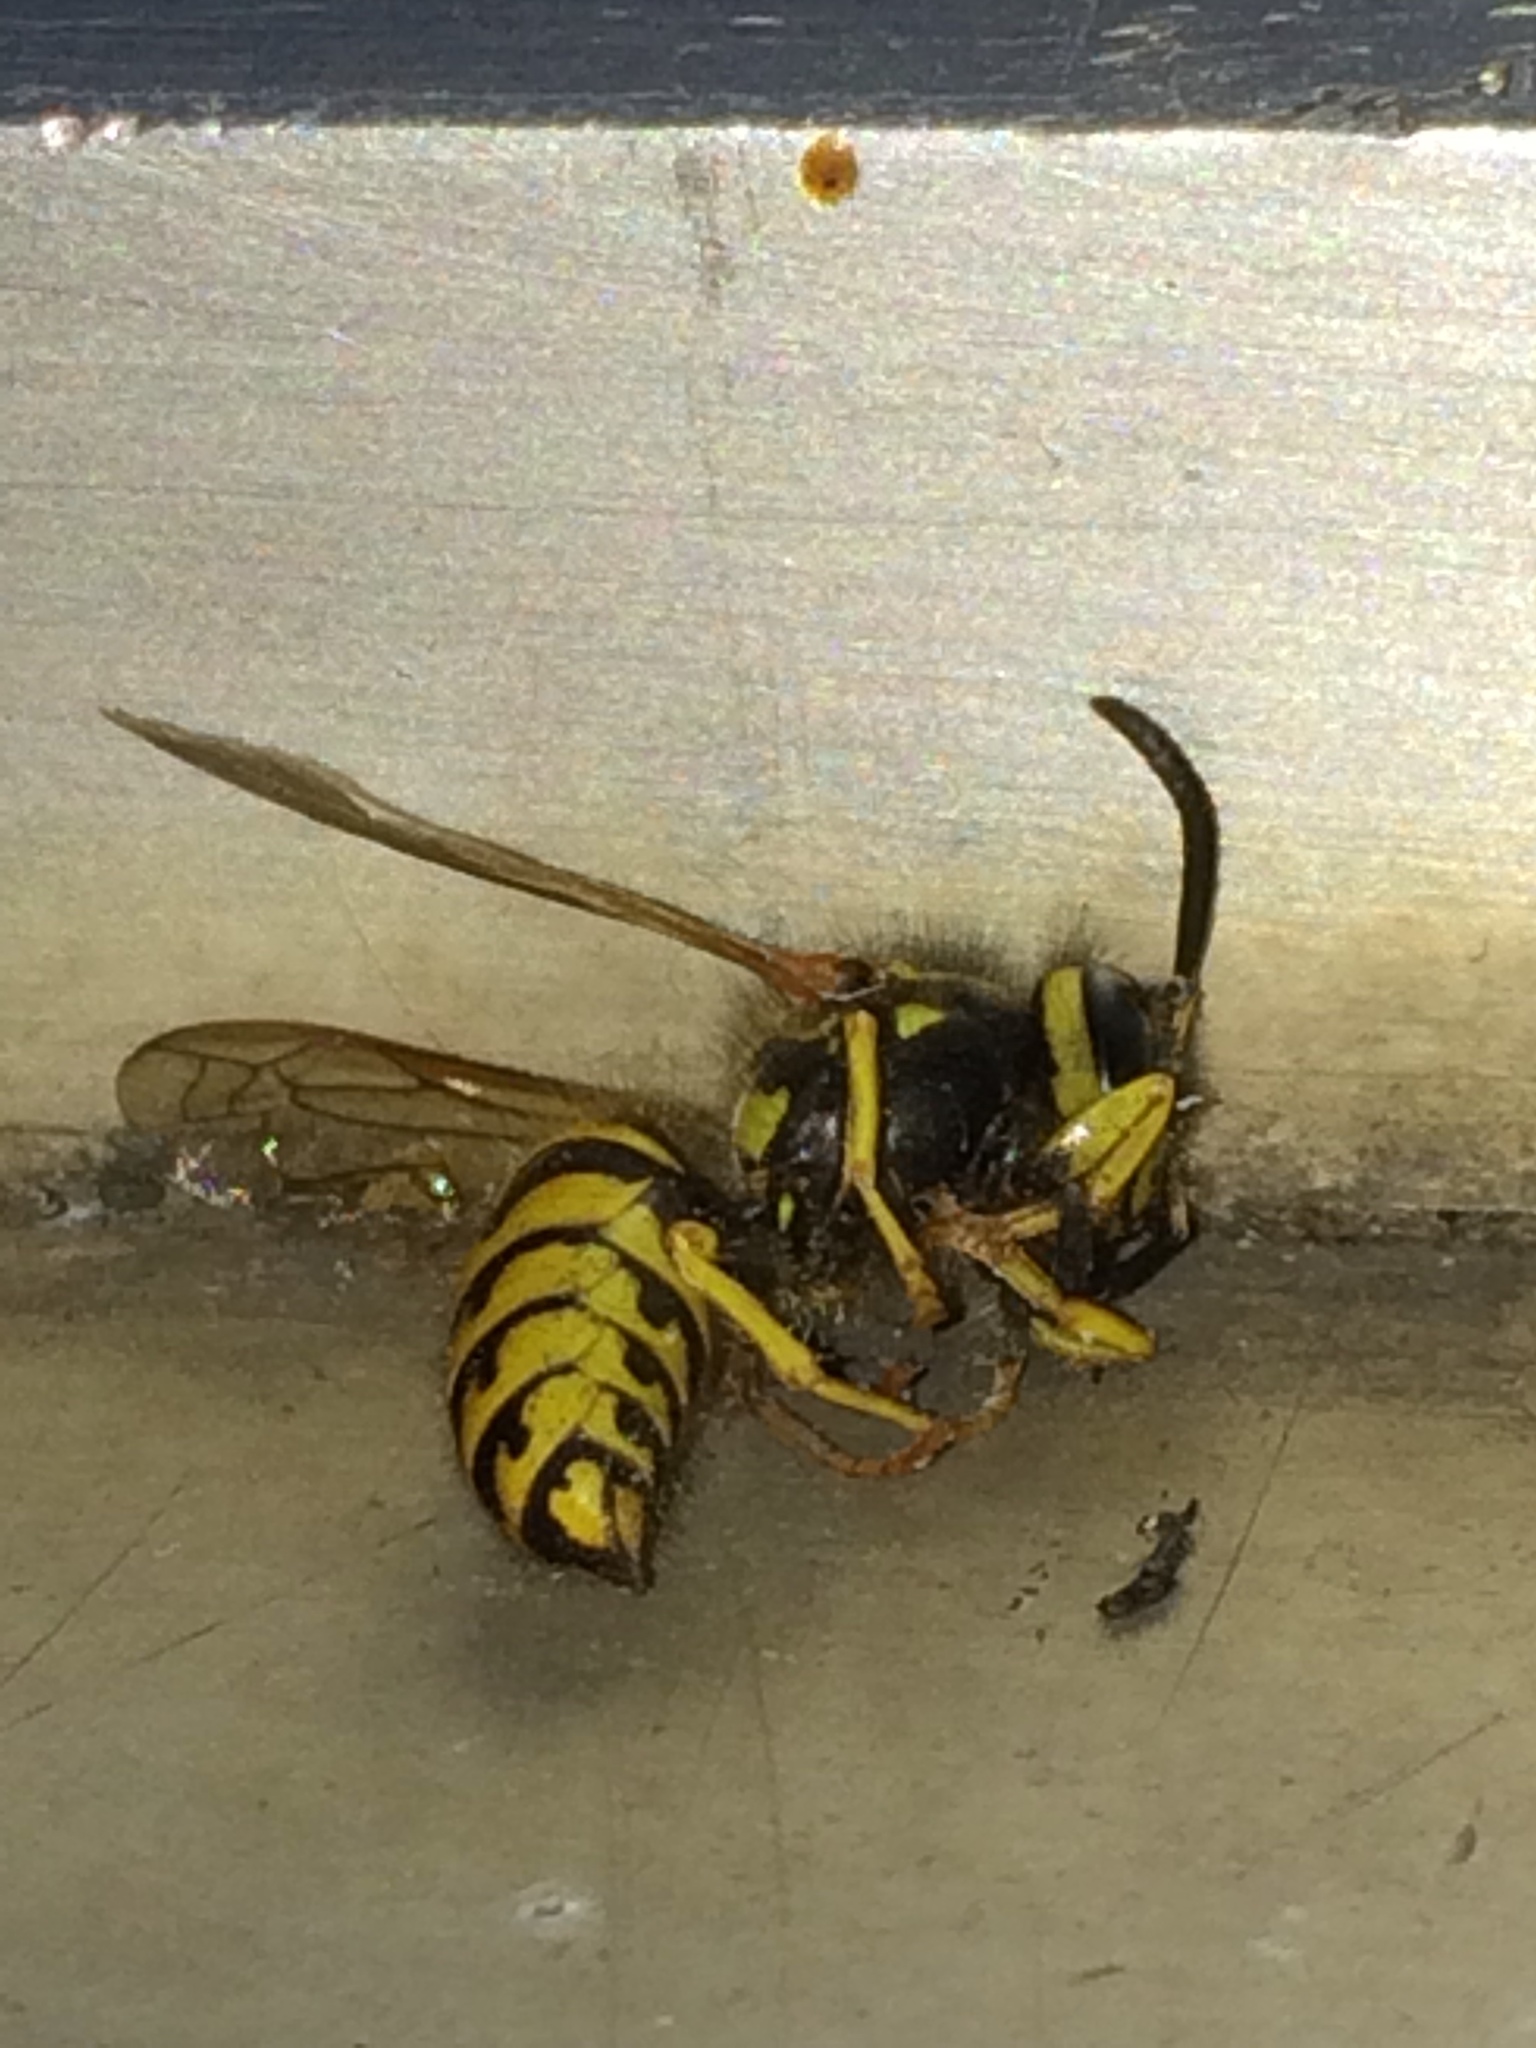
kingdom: Animalia
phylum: Arthropoda
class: Insecta
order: Hymenoptera
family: Vespidae
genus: Vespula
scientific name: Vespula pensylvanica
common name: Western yellowjacket
